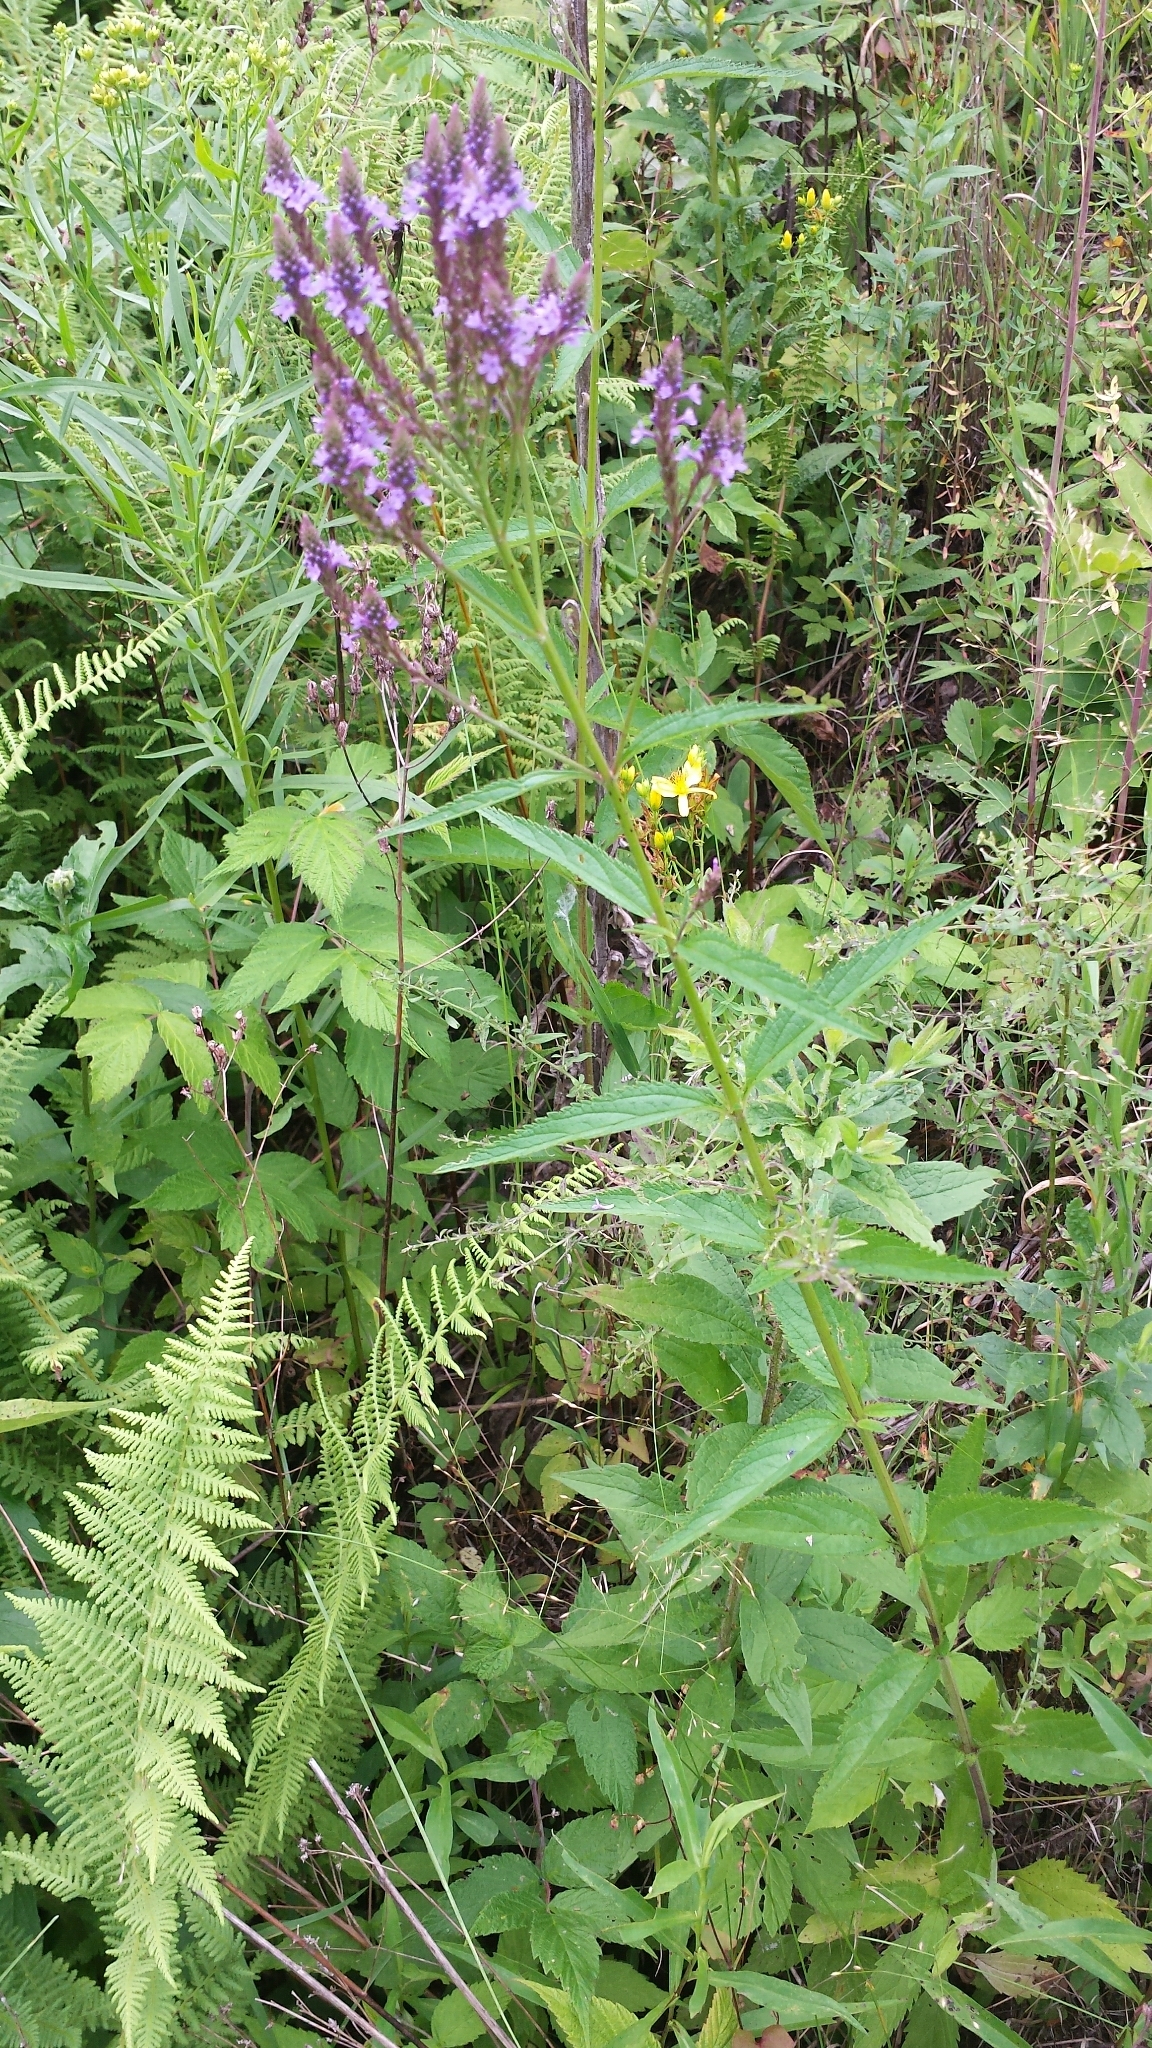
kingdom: Plantae
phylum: Tracheophyta
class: Magnoliopsida
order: Lamiales
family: Verbenaceae
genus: Verbena
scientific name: Verbena hastata
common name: American blue vervain
